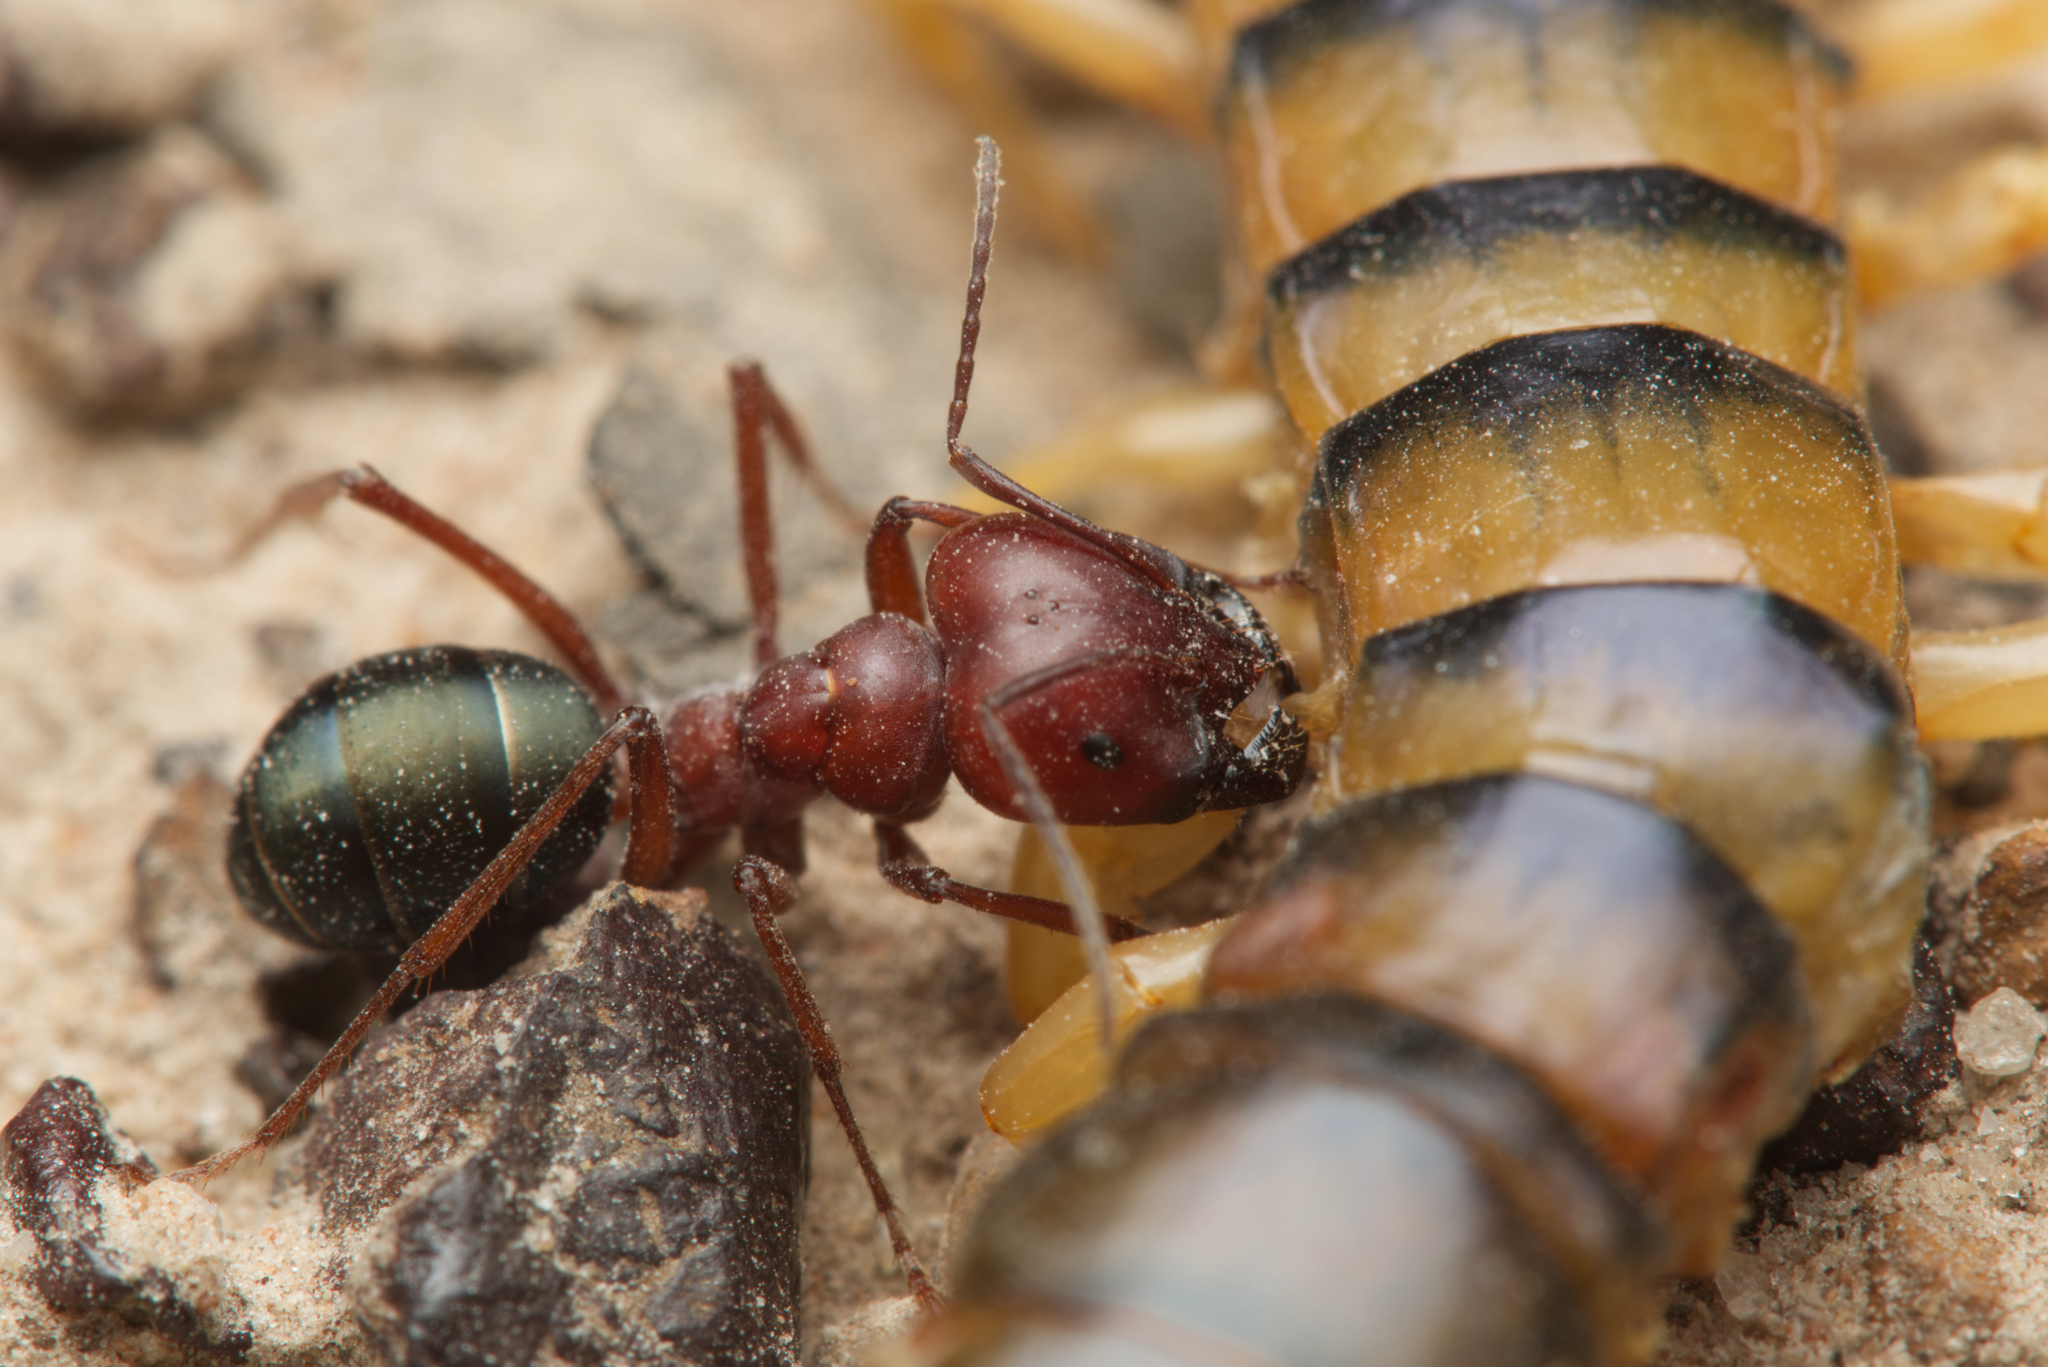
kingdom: Animalia
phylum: Arthropoda
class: Insecta
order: Hymenoptera
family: Formicidae
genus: Melophorus
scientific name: Melophorus rufoniger
